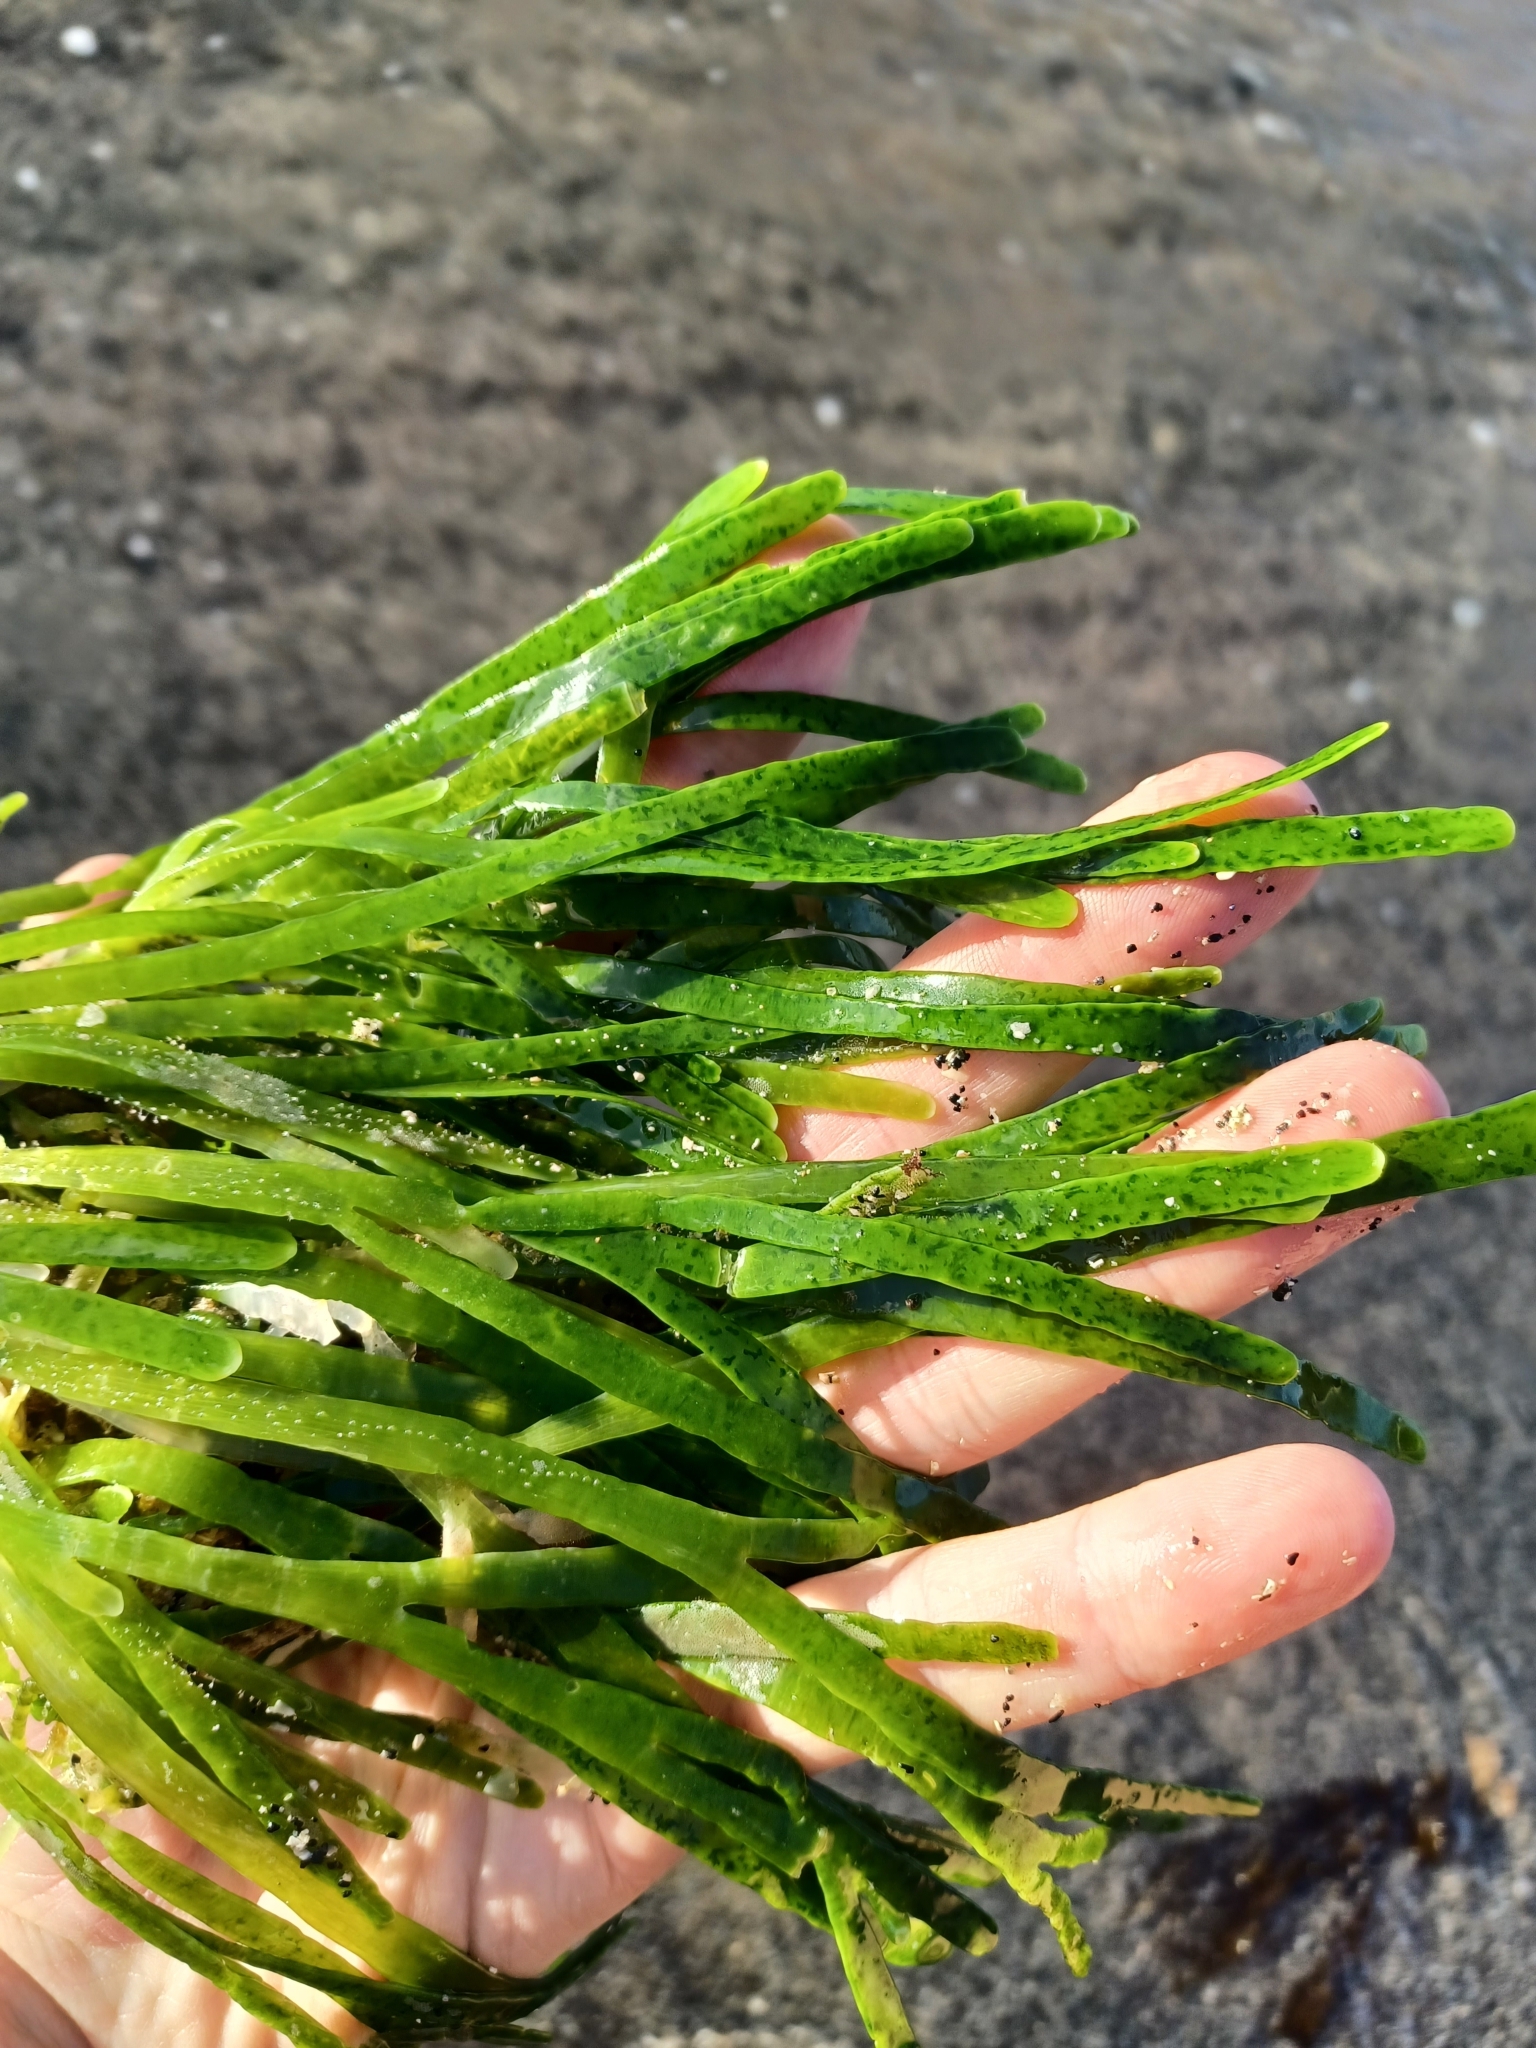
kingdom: Plantae
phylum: Chlorophyta
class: Ulvophyceae
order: Bryopsidales
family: Caulerpaceae
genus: Caulerpa
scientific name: Caulerpa filiformis
